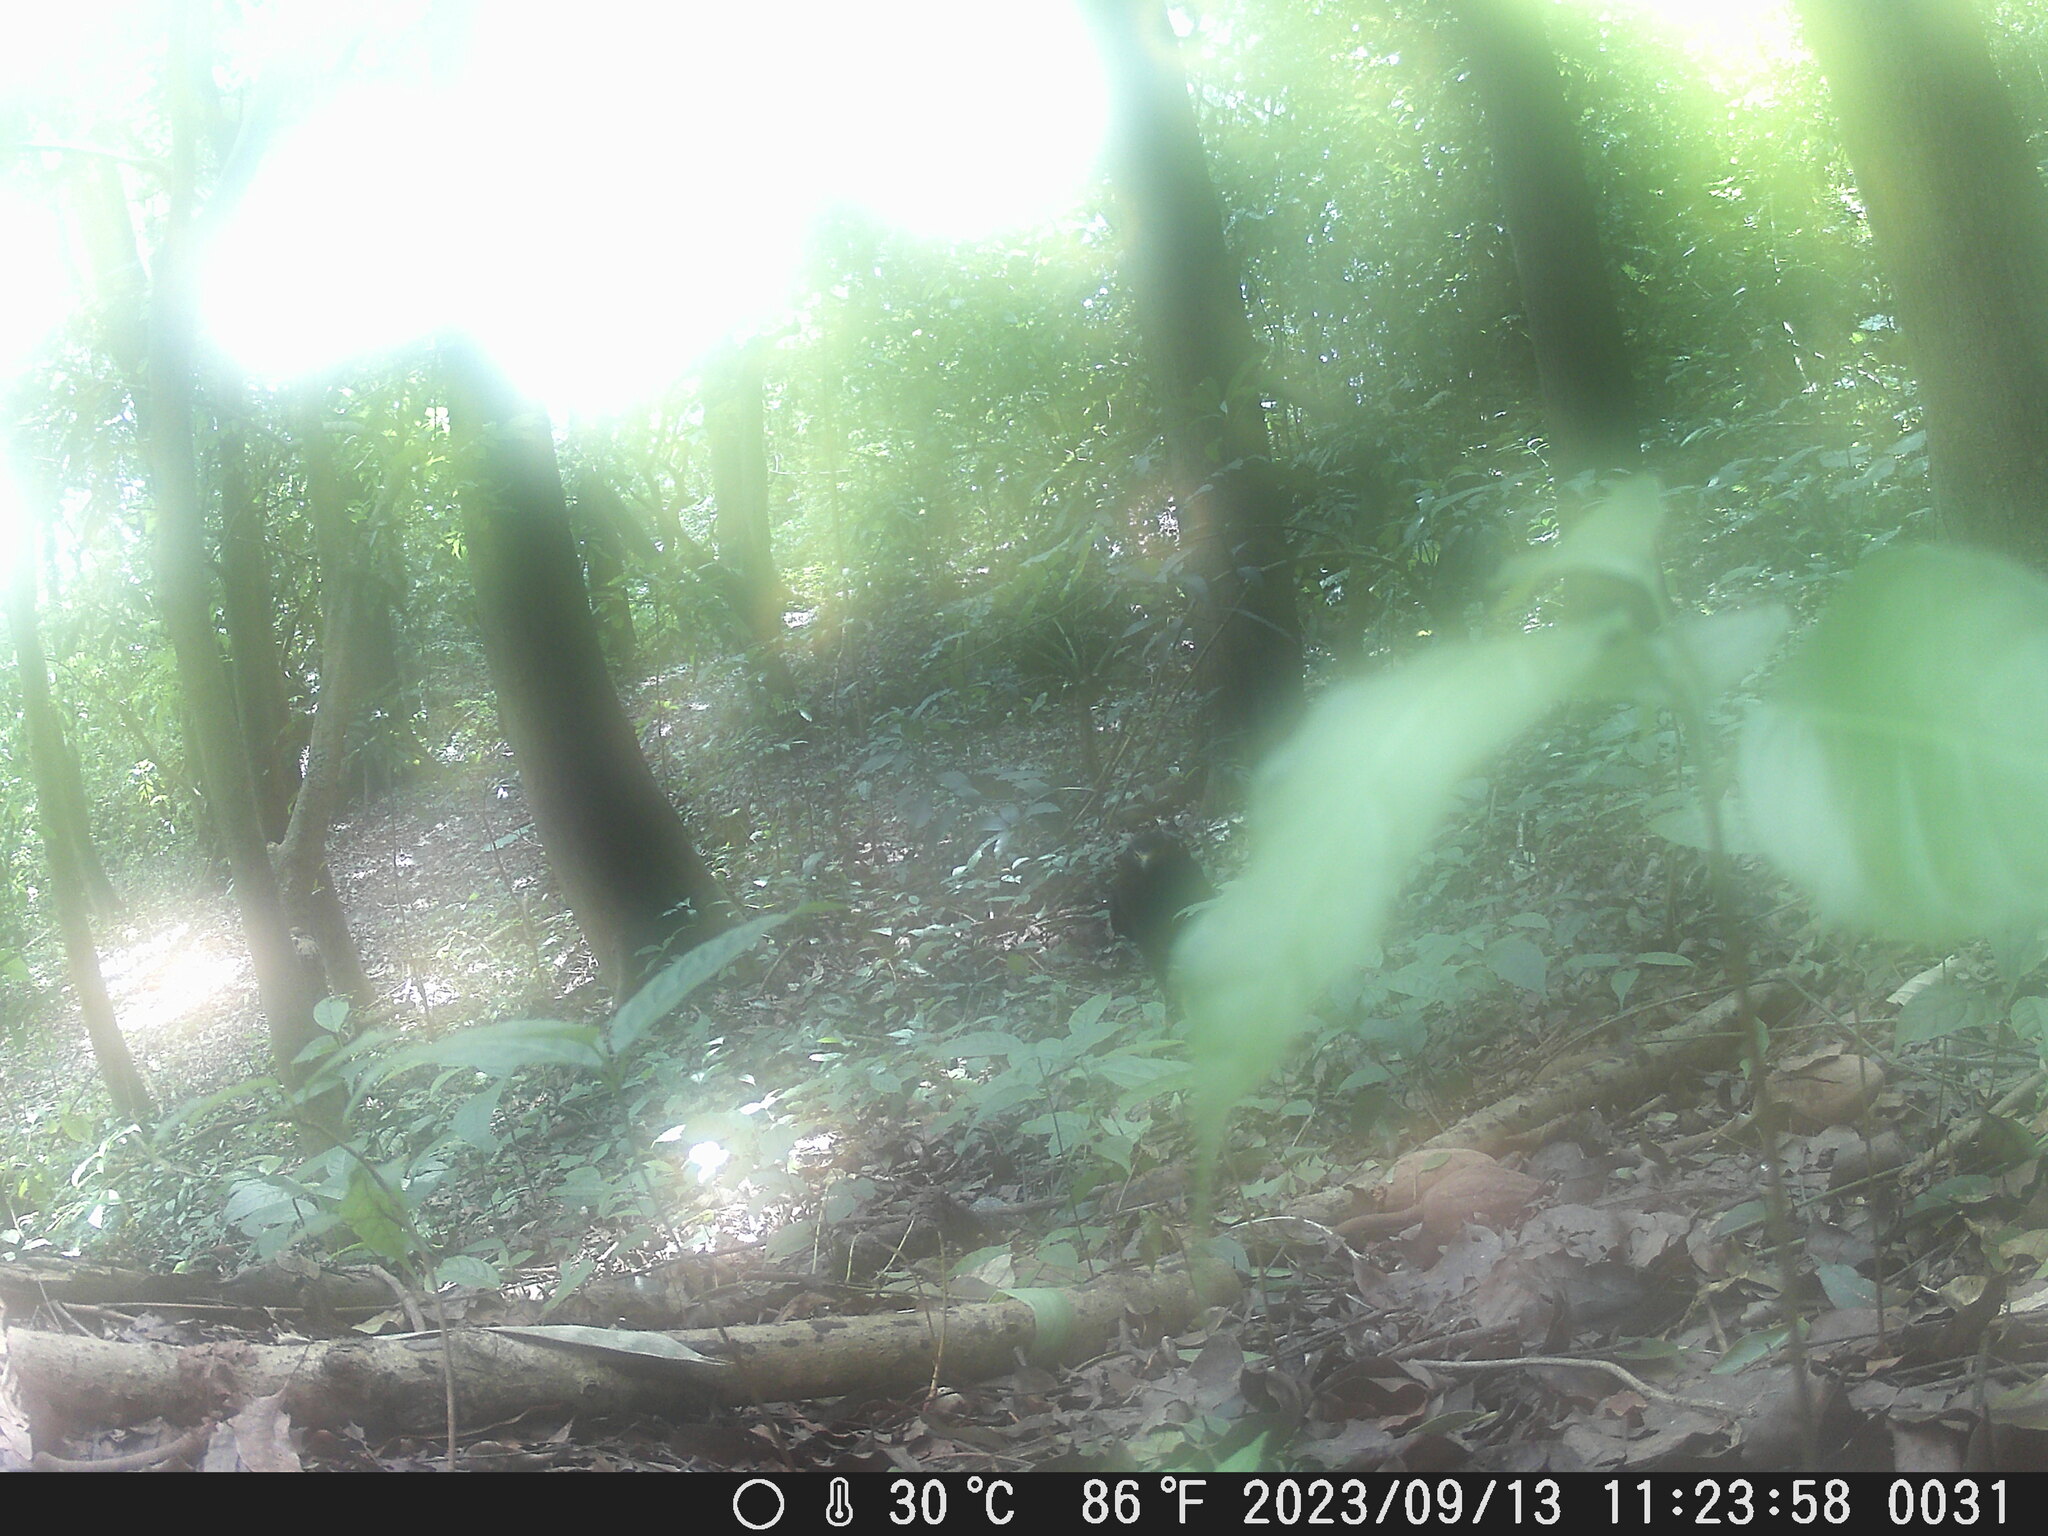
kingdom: Animalia
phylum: Chordata
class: Aves
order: Accipitriformes
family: Accipitridae
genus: Spilornis
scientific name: Spilornis cheela
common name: Crested serpent eagle
